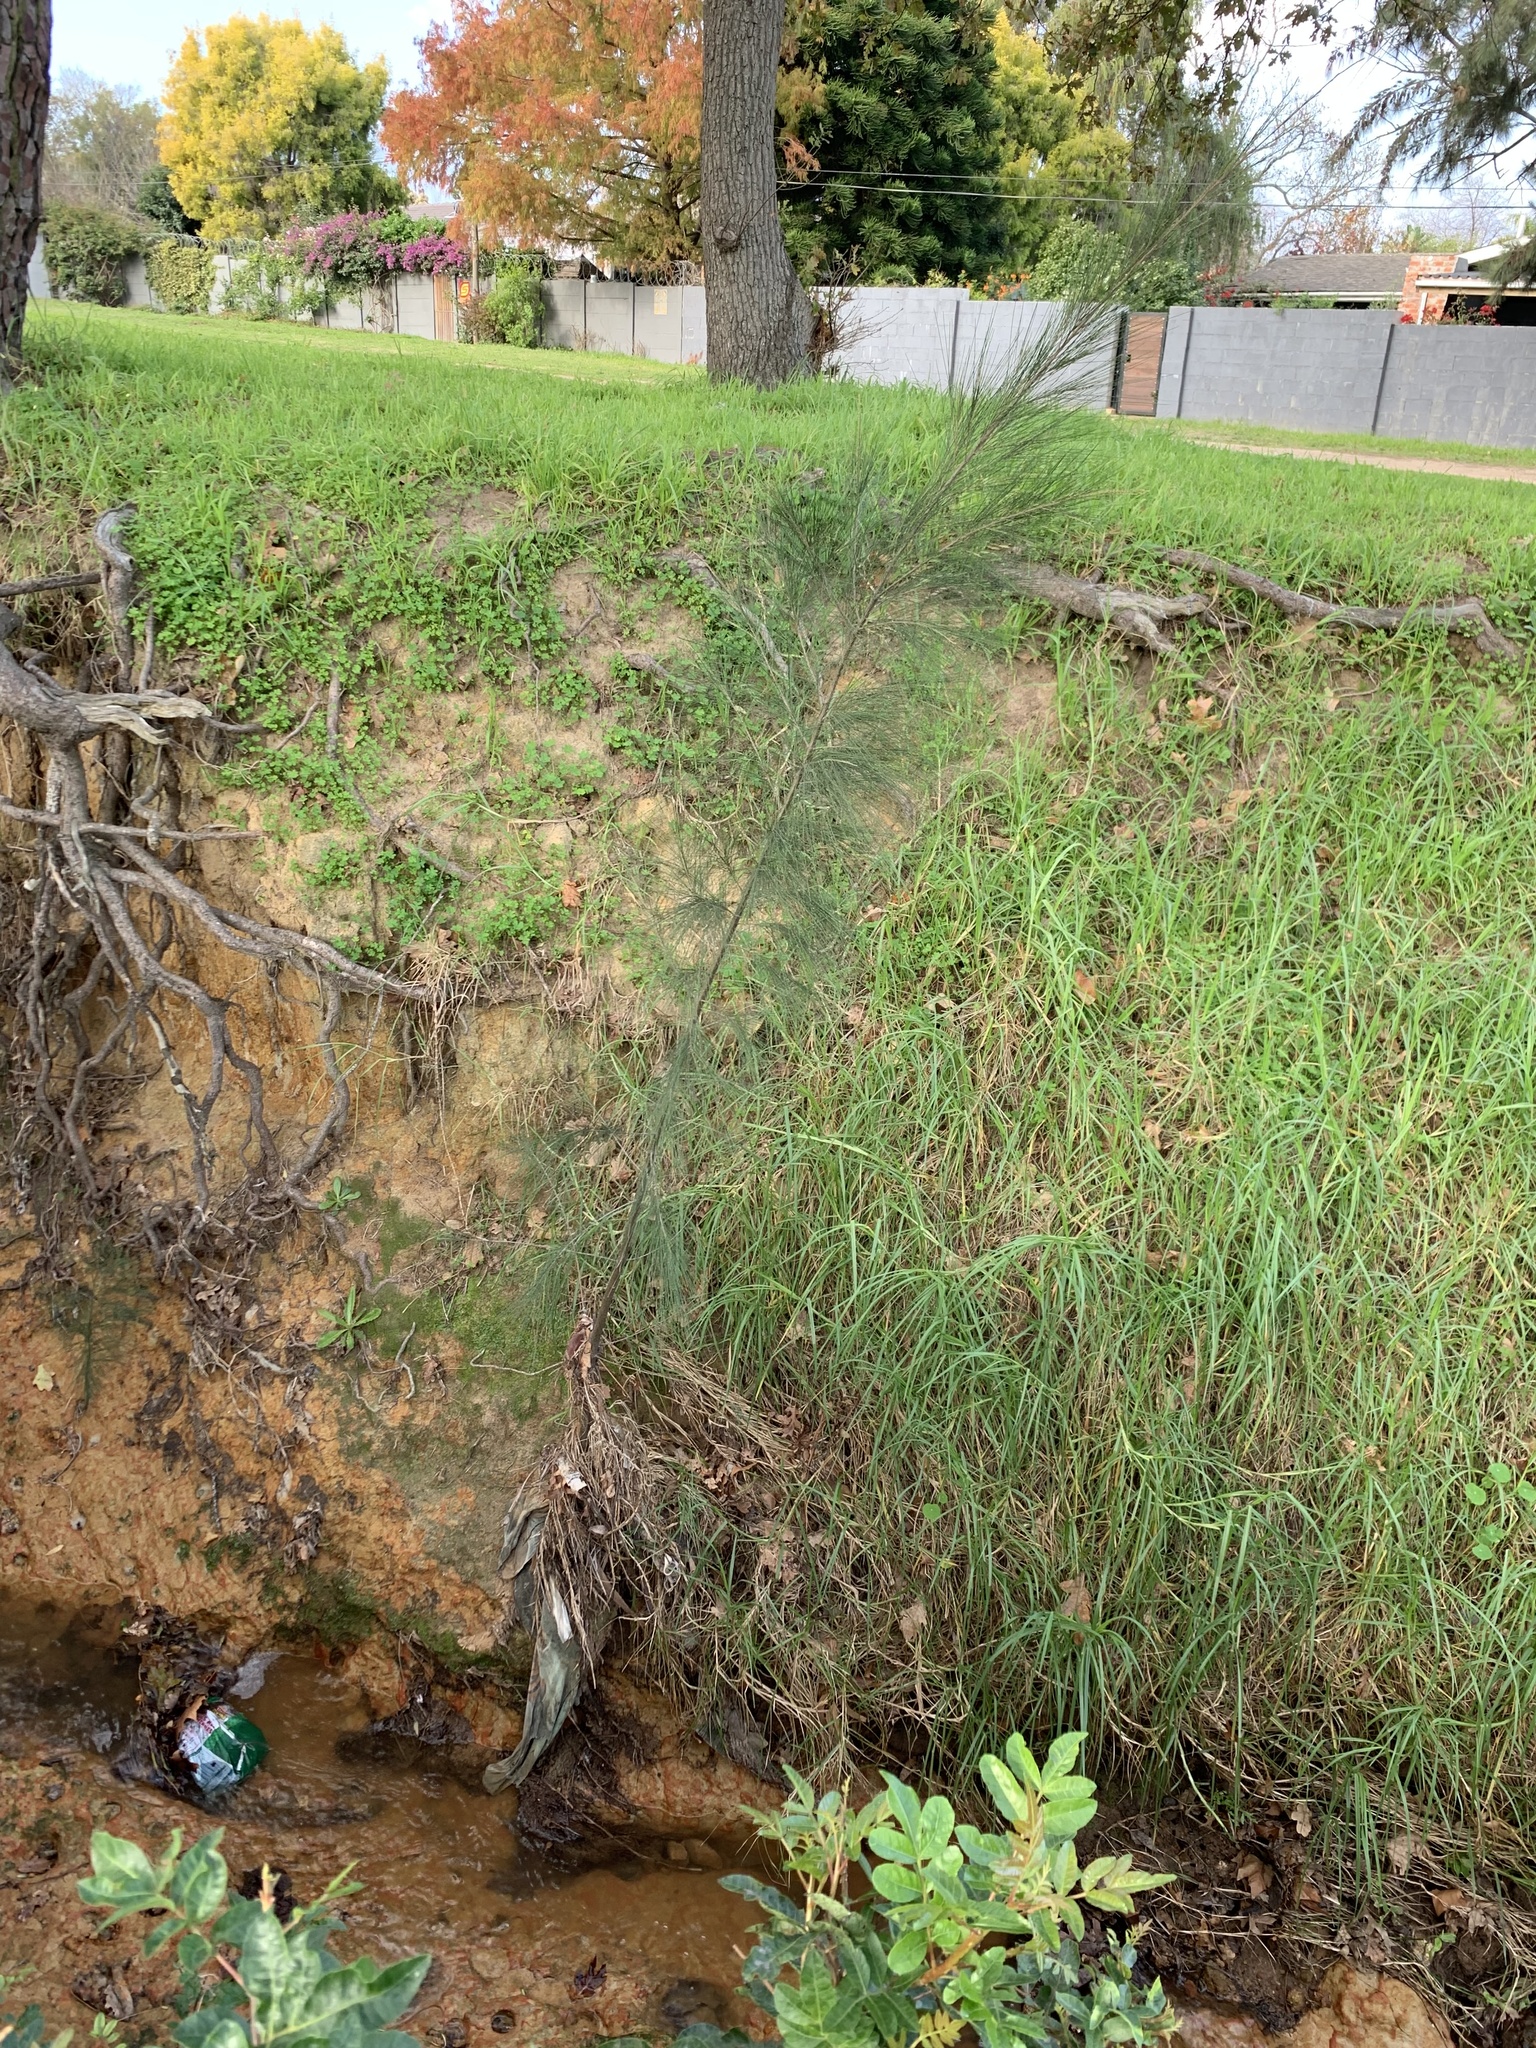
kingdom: Plantae
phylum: Tracheophyta
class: Magnoliopsida
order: Fagales
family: Casuarinaceae
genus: Casuarina
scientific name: Casuarina cunninghamiana
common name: River sheoak
